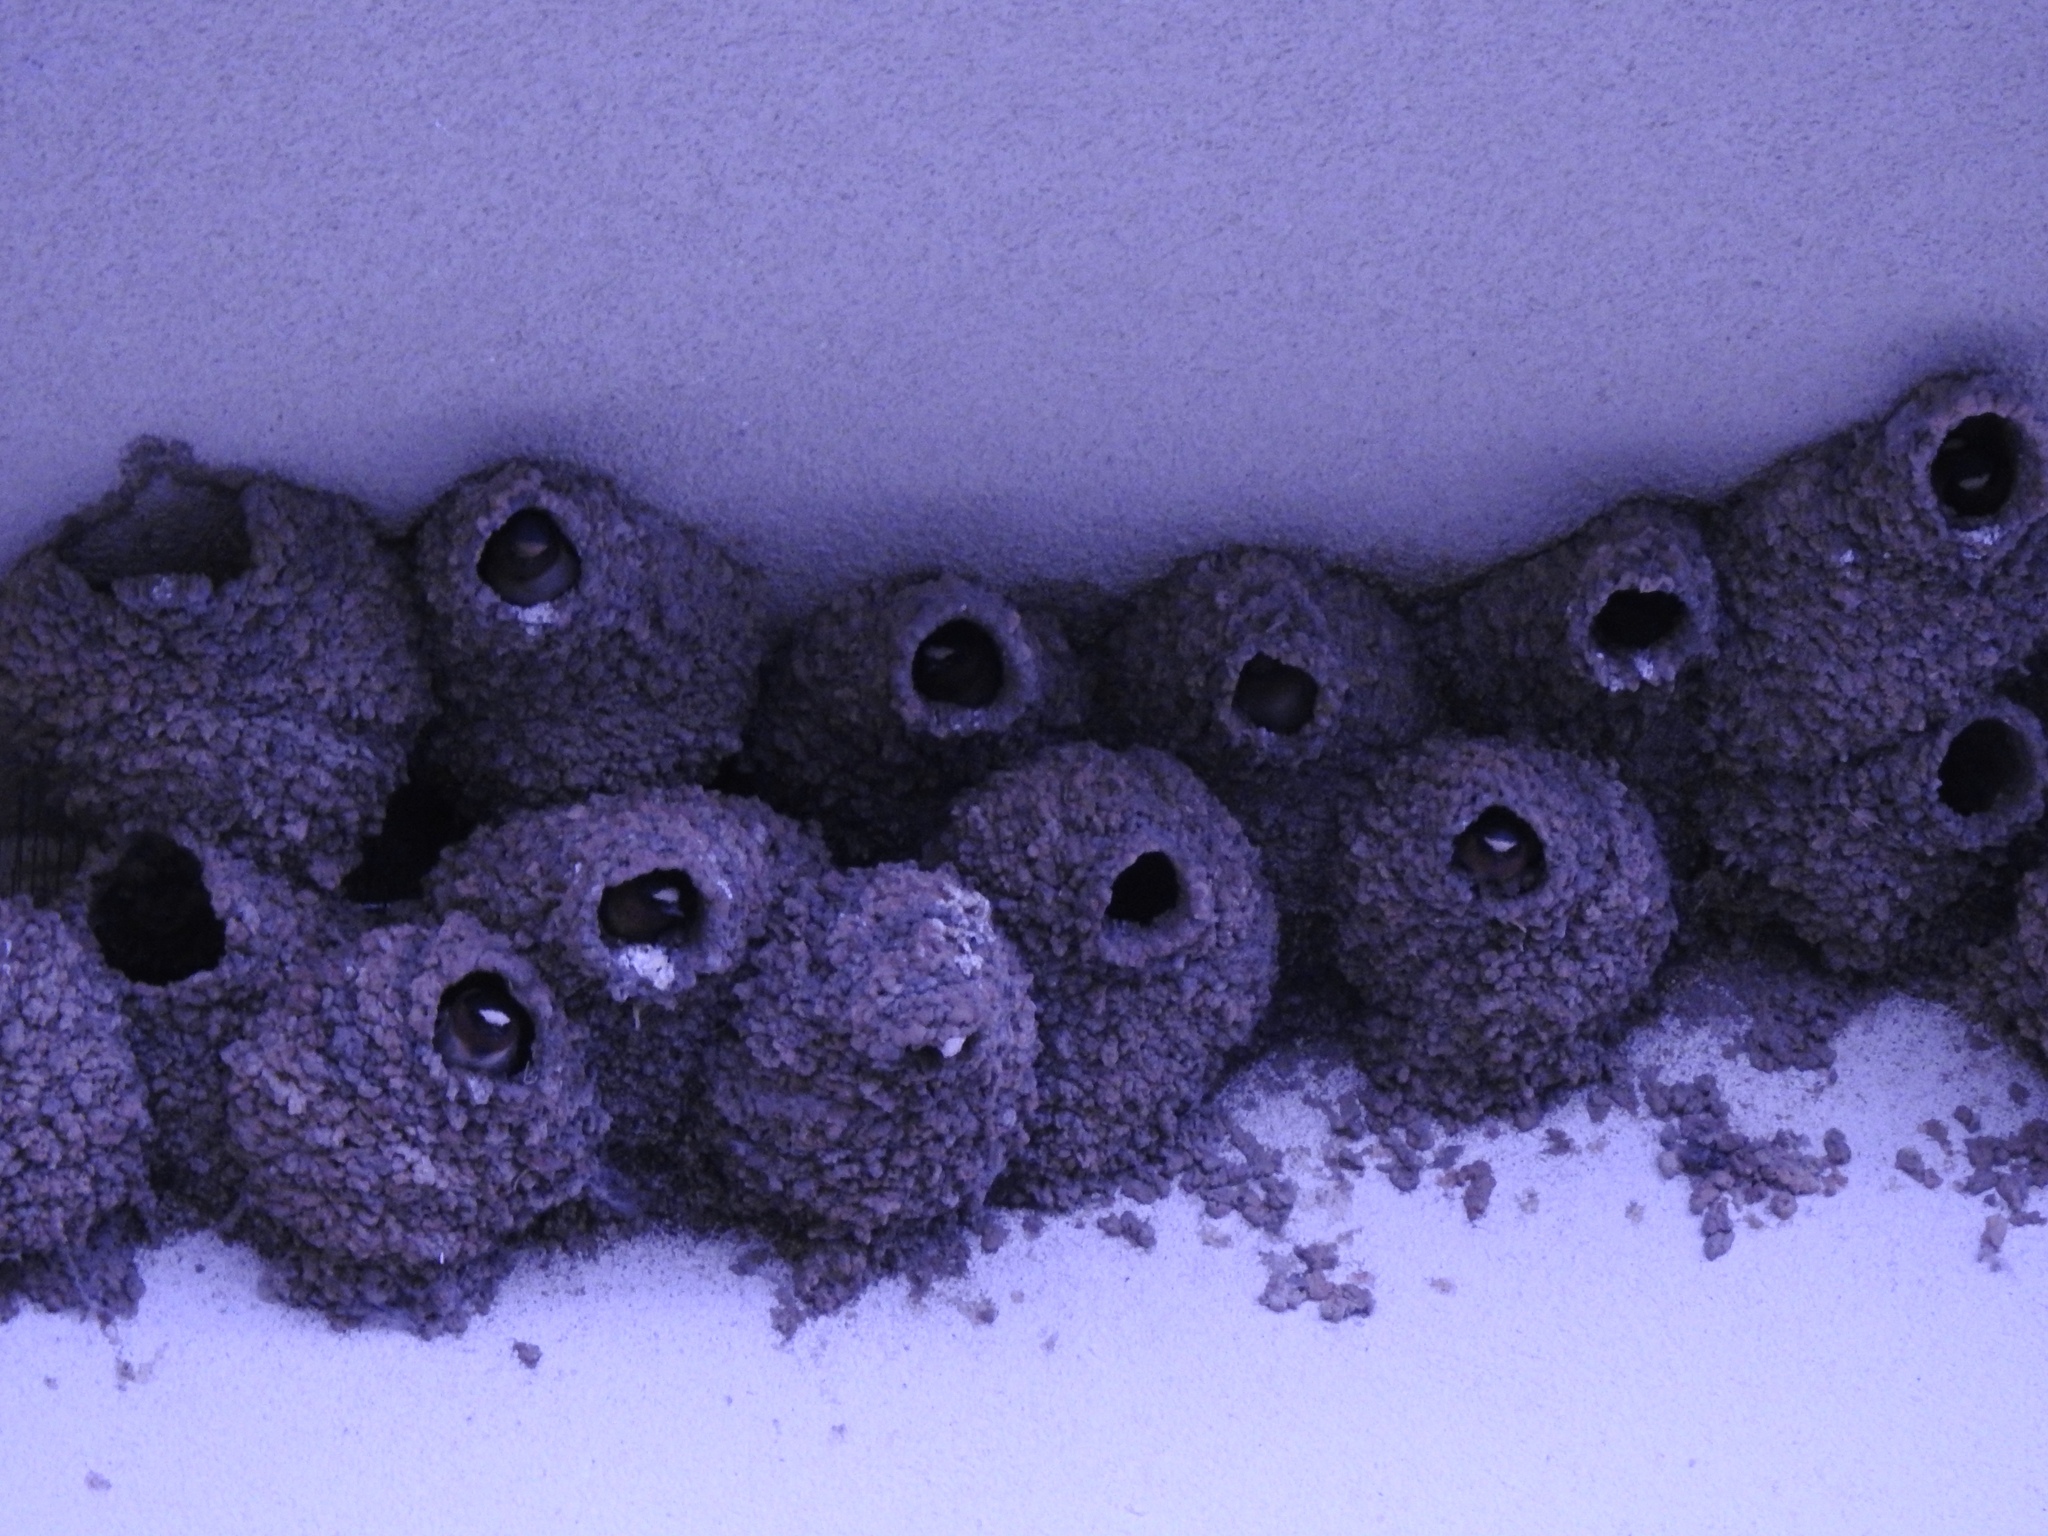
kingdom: Animalia
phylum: Chordata
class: Aves
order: Passeriformes
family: Hirundinidae
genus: Petrochelidon
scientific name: Petrochelidon pyrrhonota
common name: American cliff swallow
